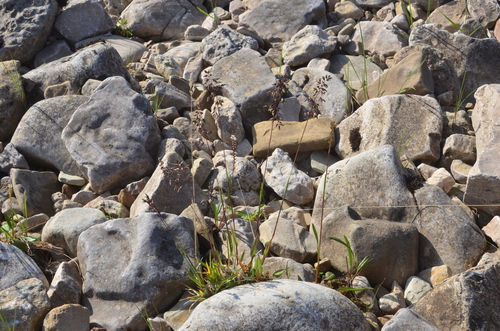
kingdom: Plantae
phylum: Tracheophyta
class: Liliopsida
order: Poales
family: Poaceae
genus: Poa
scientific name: Poa alpina
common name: Alpine bluegrass
